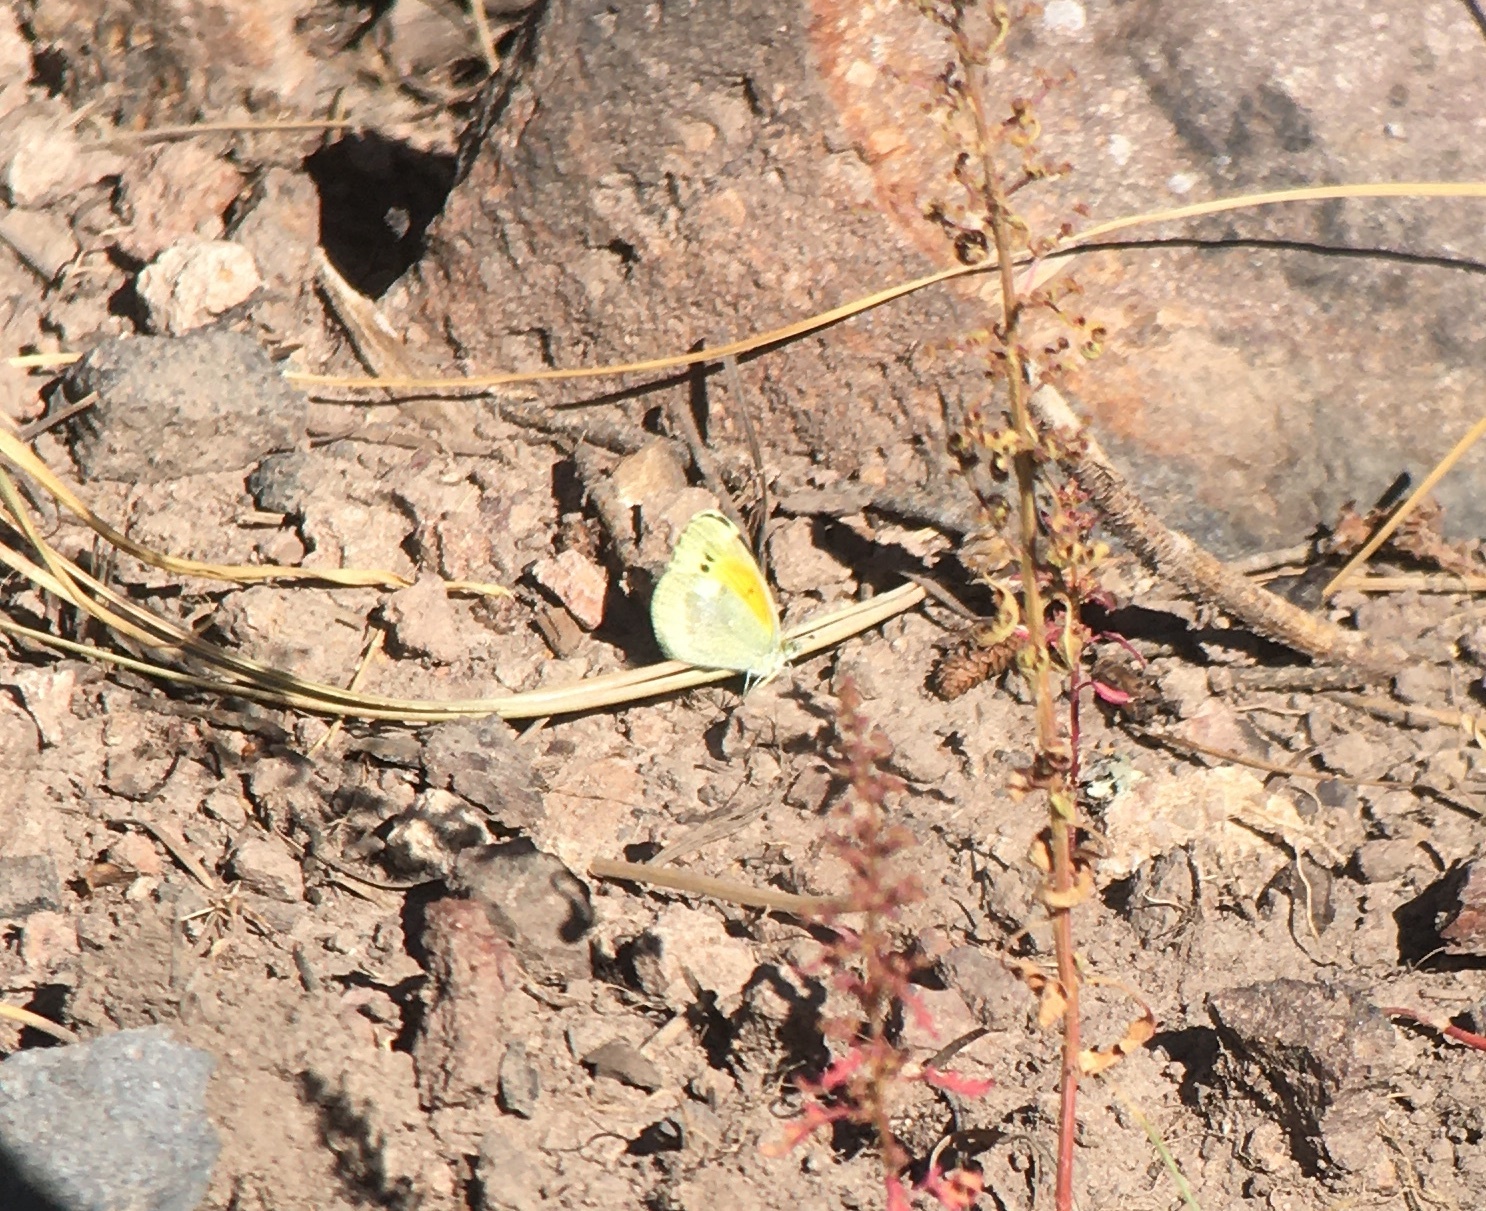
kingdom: Animalia
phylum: Arthropoda
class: Insecta
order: Lepidoptera
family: Pieridae
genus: Nathalis
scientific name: Nathalis iole
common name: Dainty sulphur
